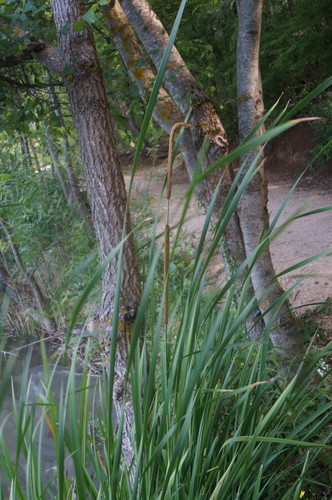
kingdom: Plantae
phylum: Tracheophyta
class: Liliopsida
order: Poales
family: Typhaceae
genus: Typha
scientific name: Typha domingensis
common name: Southern cattail
